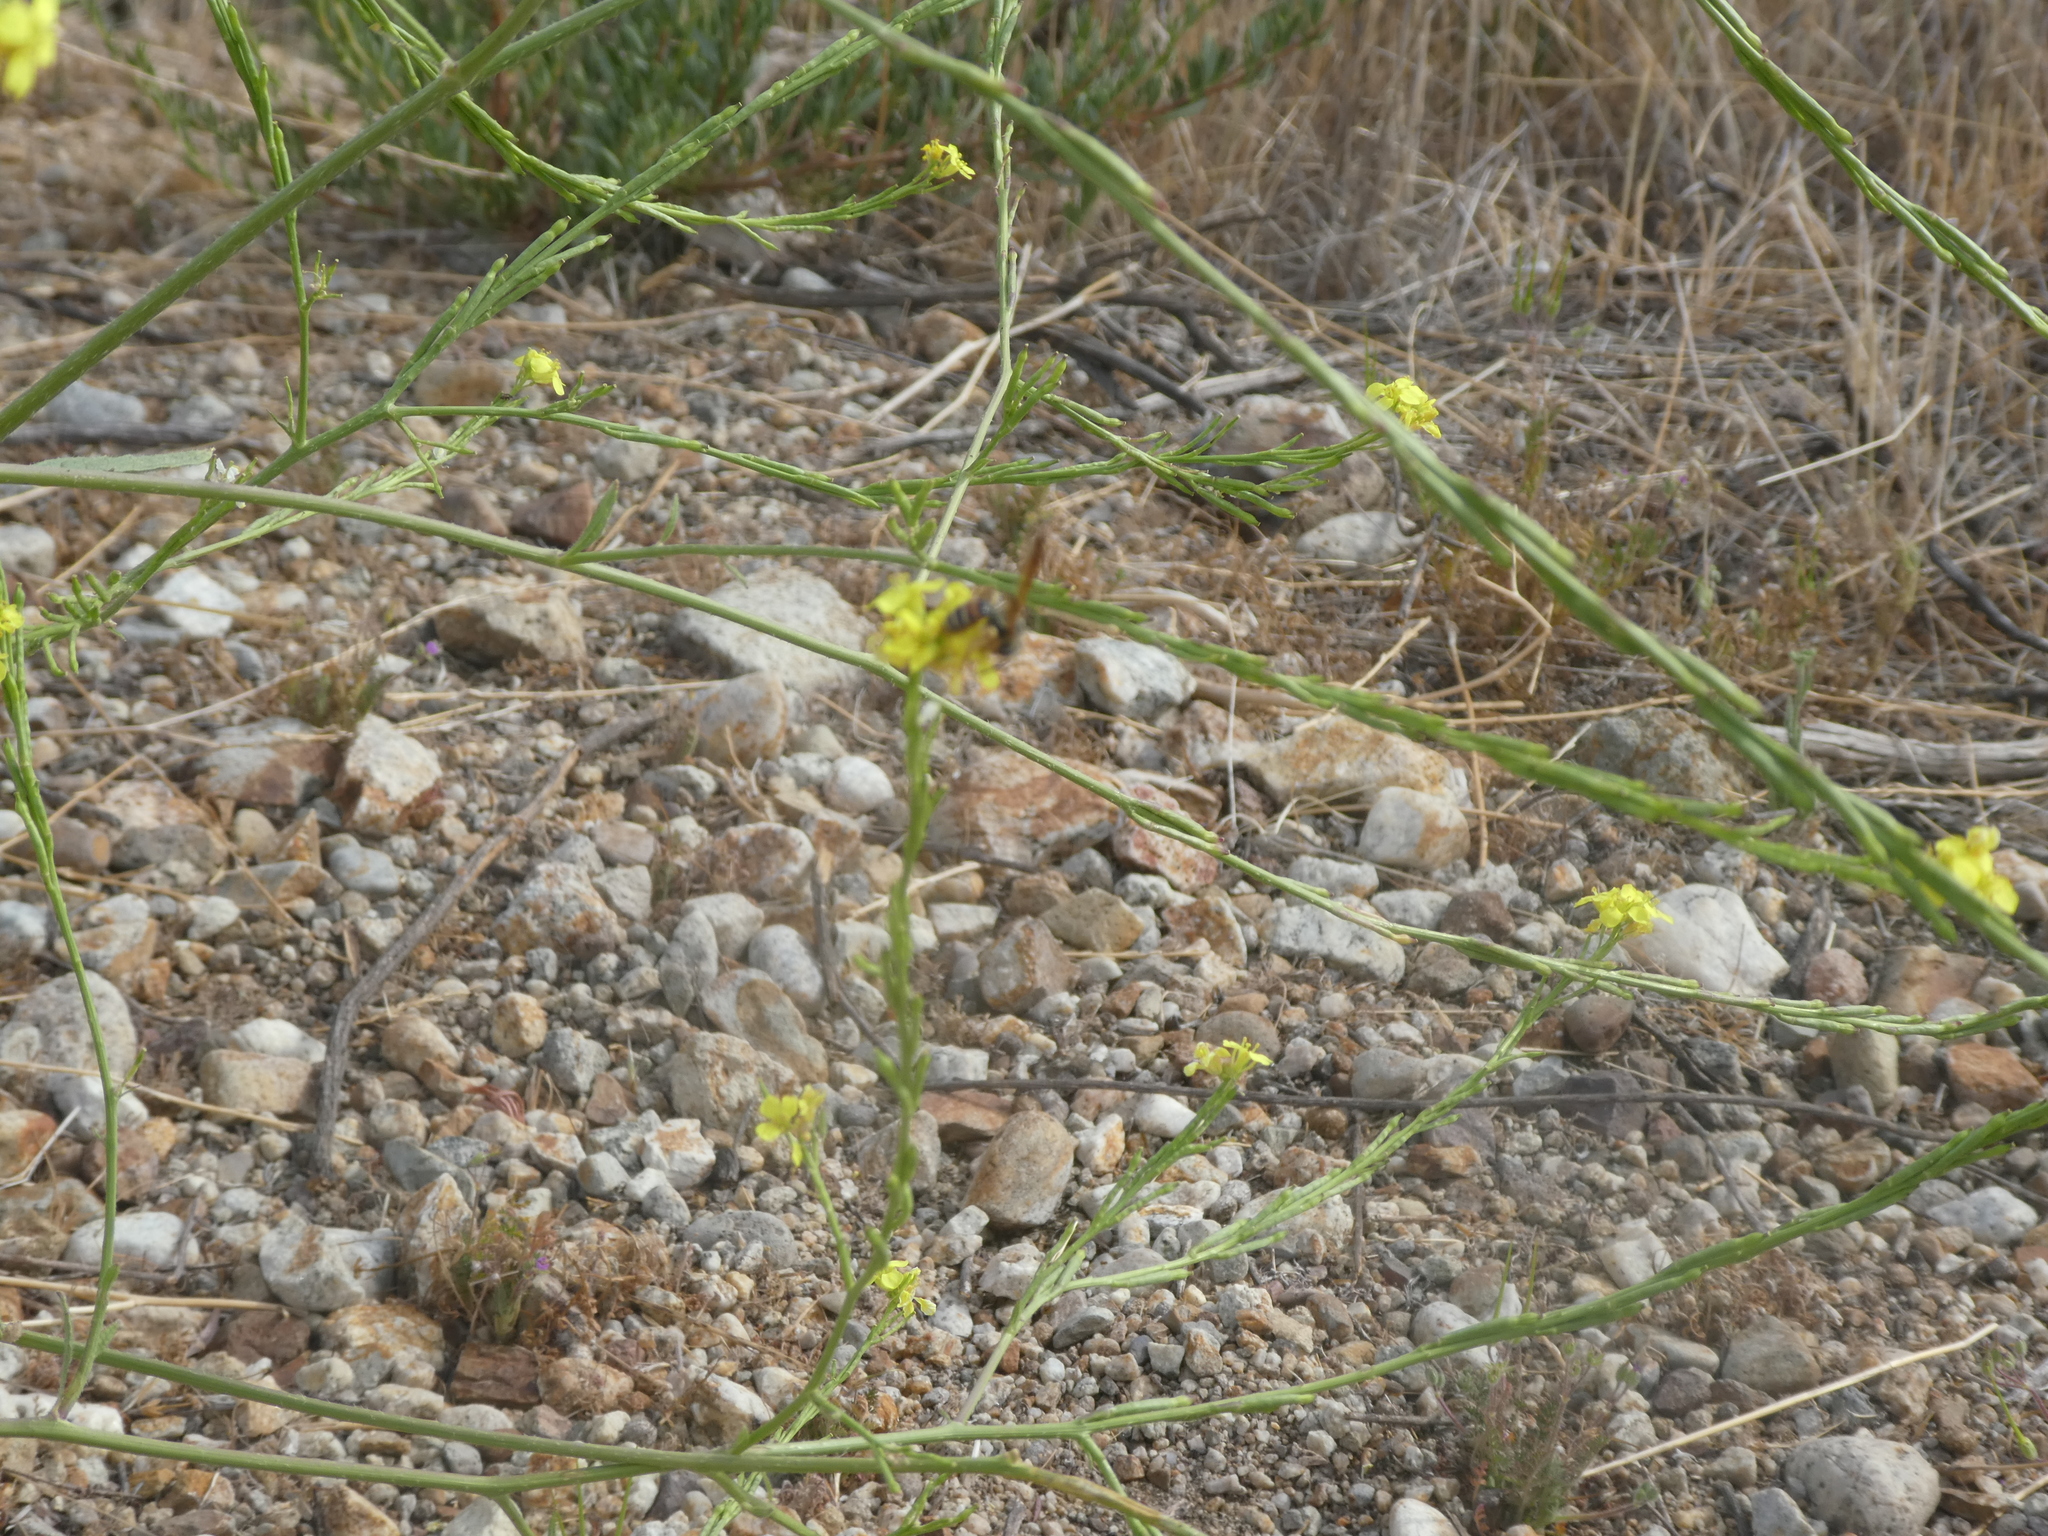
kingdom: Animalia
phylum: Arthropoda
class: Insecta
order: Hymenoptera
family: Andrenidae
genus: Andrena
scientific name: Andrena prunorum
